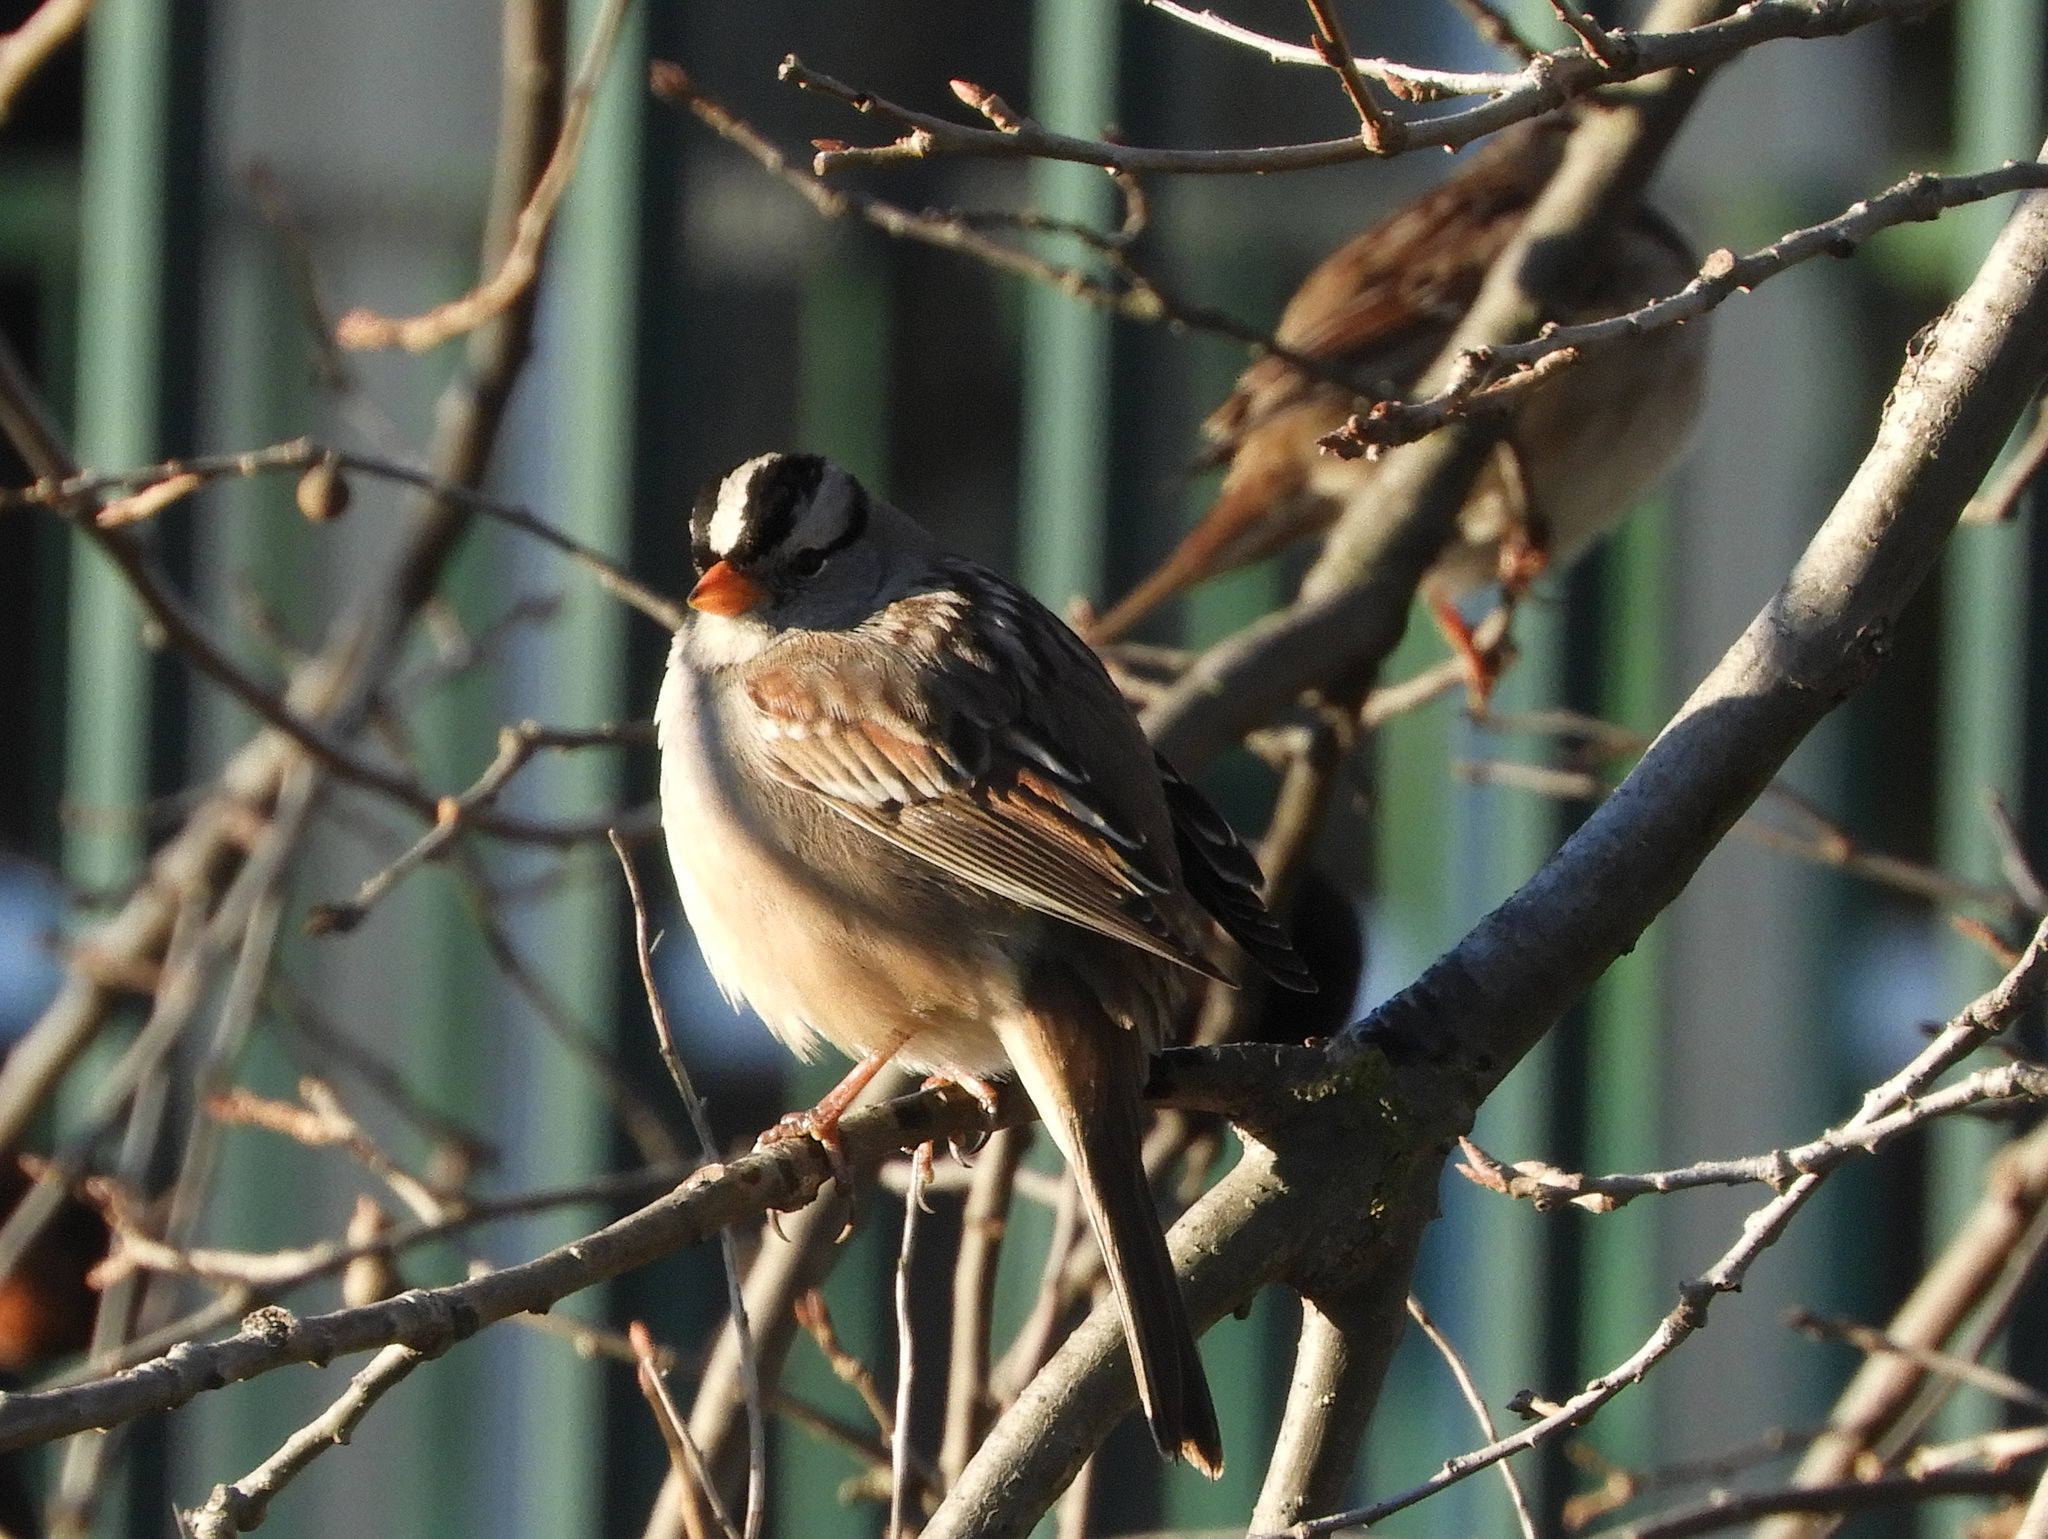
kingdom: Animalia
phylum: Chordata
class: Aves
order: Passeriformes
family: Passerellidae
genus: Zonotrichia
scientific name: Zonotrichia leucophrys
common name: White-crowned sparrow
